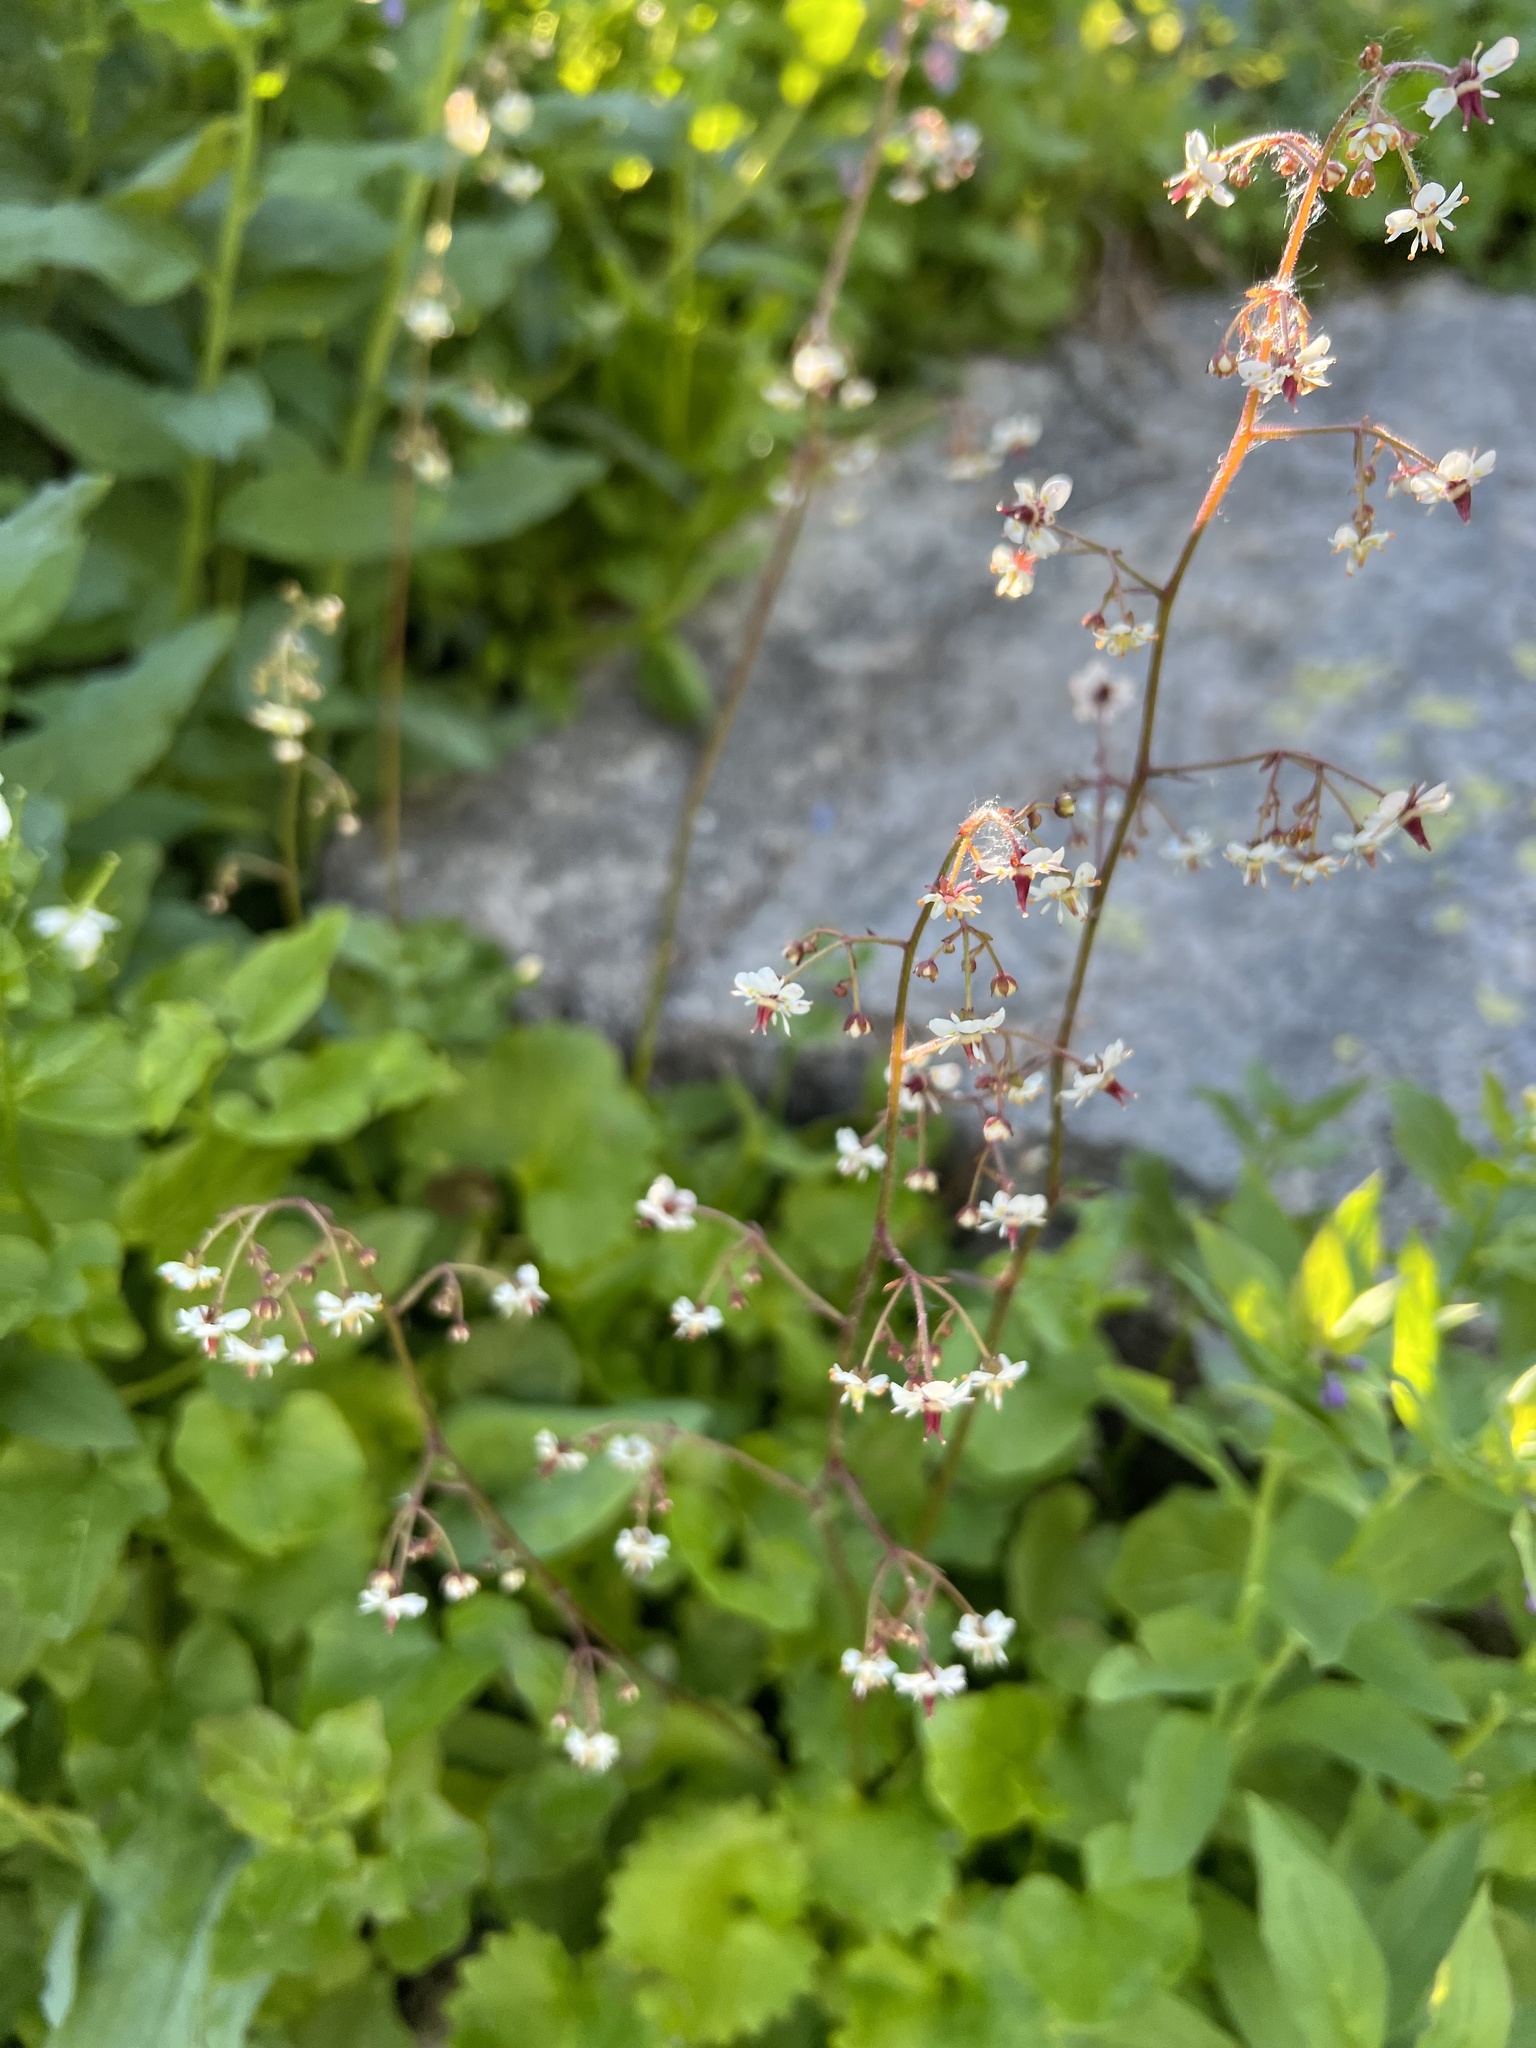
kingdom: Plantae
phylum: Tracheophyta
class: Magnoliopsida
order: Saxifragales
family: Saxifragaceae
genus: Micranthes
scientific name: Micranthes odontoloma
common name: Brook saxifrage
